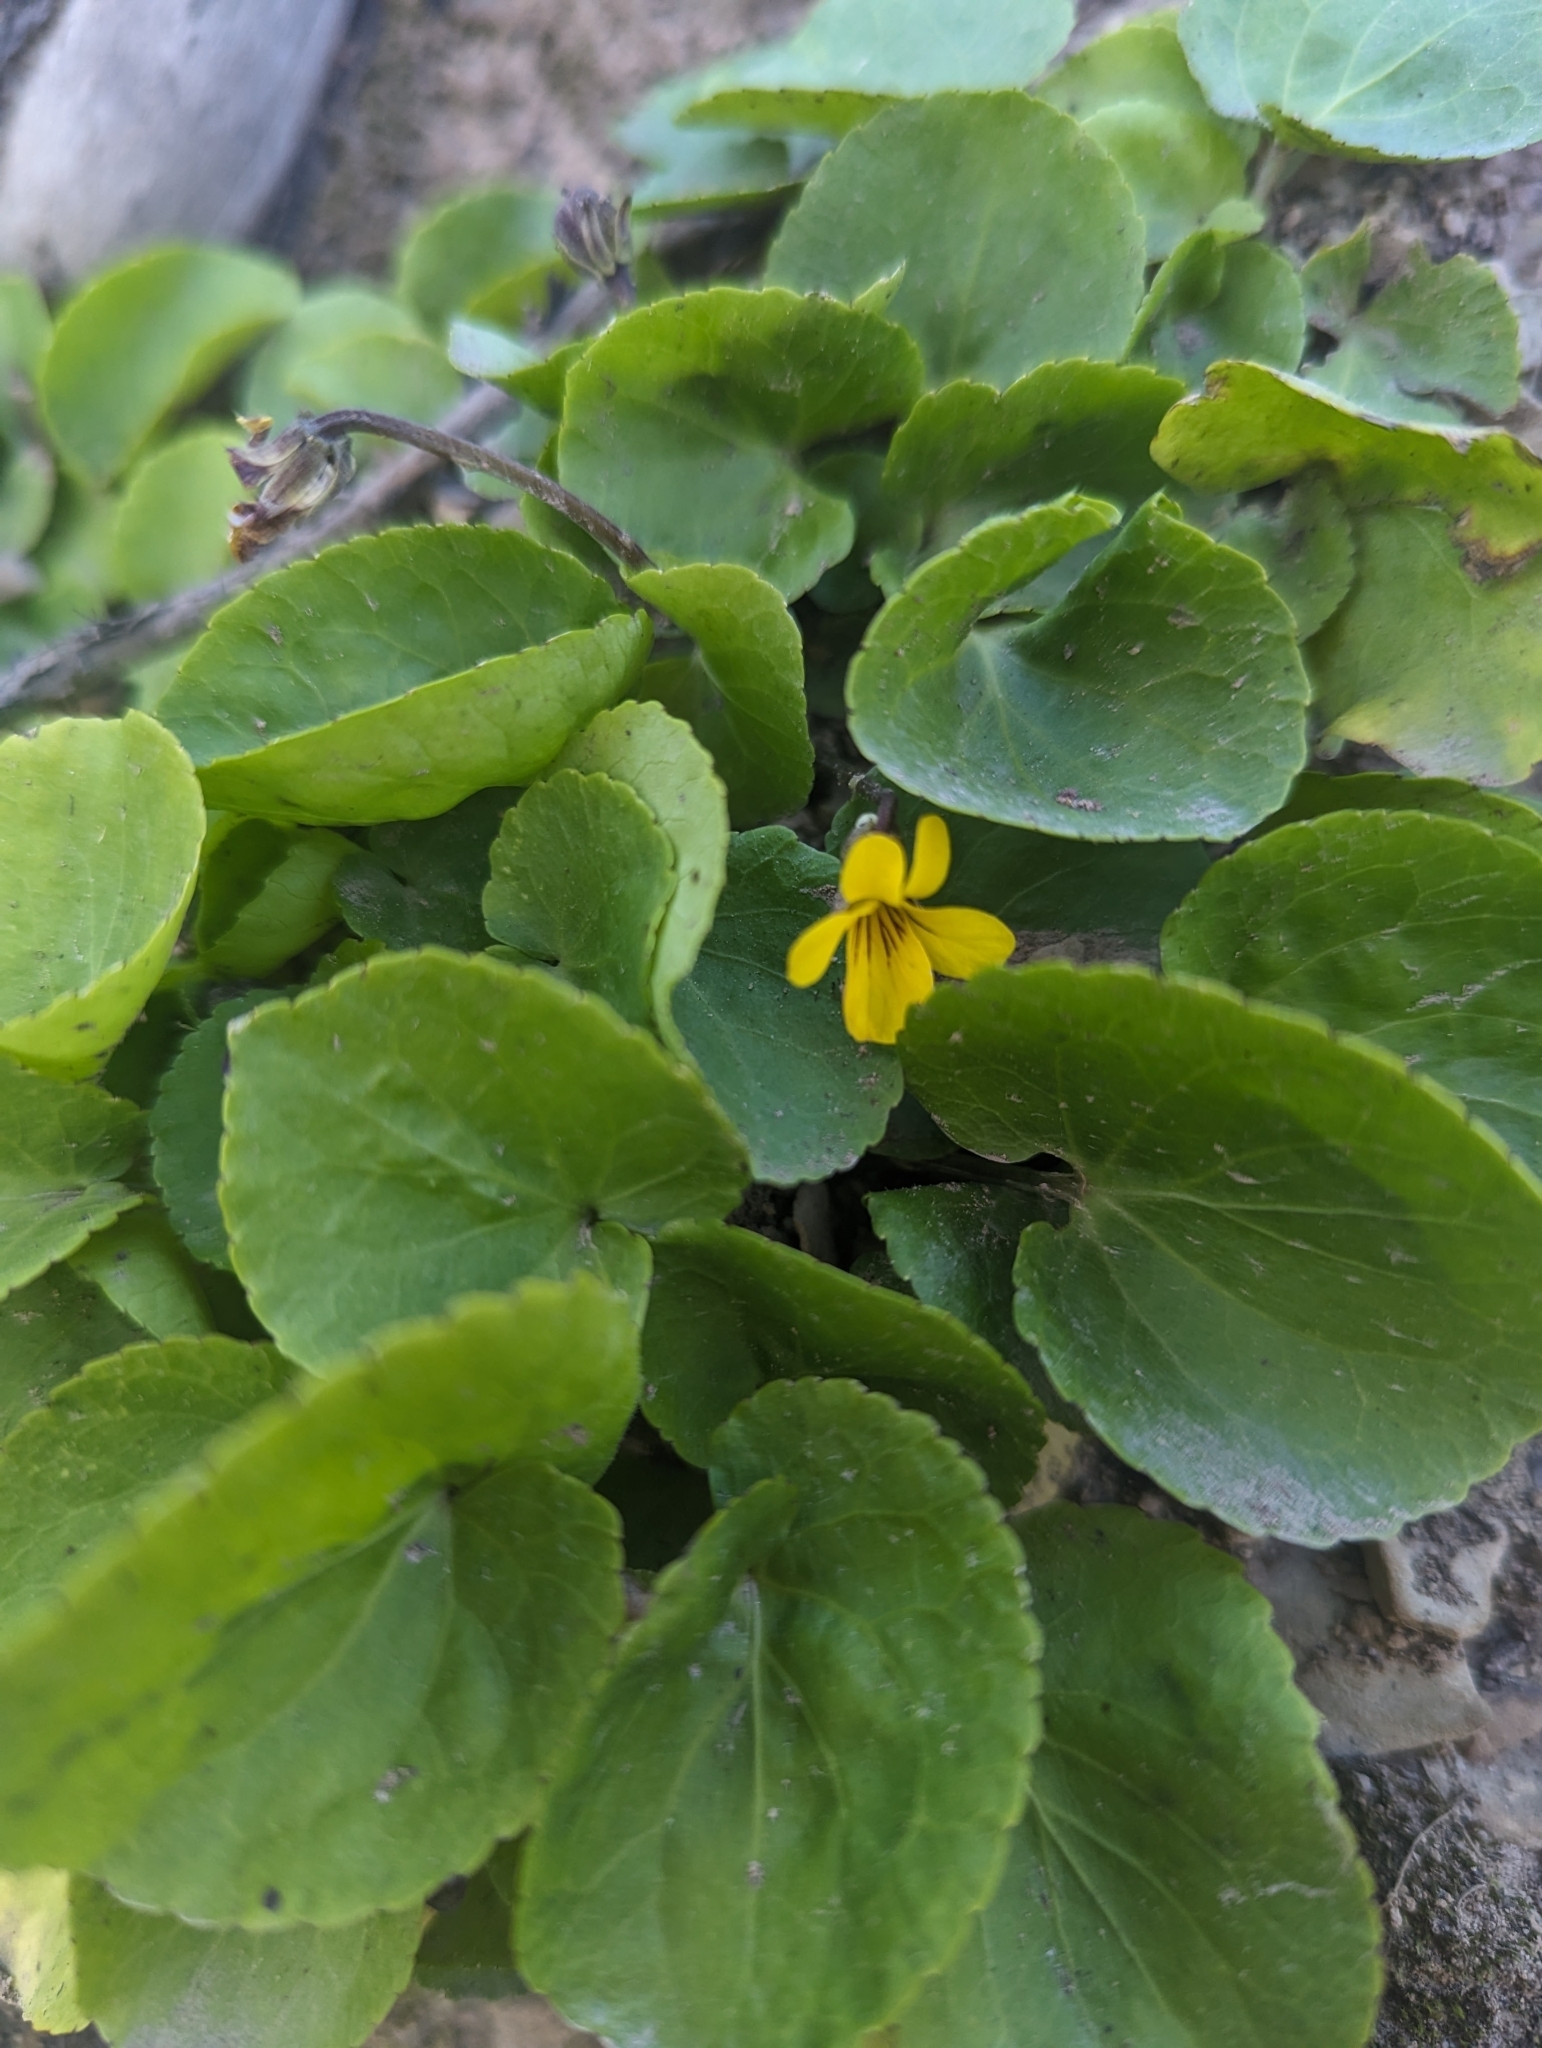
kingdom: Plantae
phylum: Tracheophyta
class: Magnoliopsida
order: Malpighiales
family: Violaceae
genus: Viola
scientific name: Viola orbiculata
